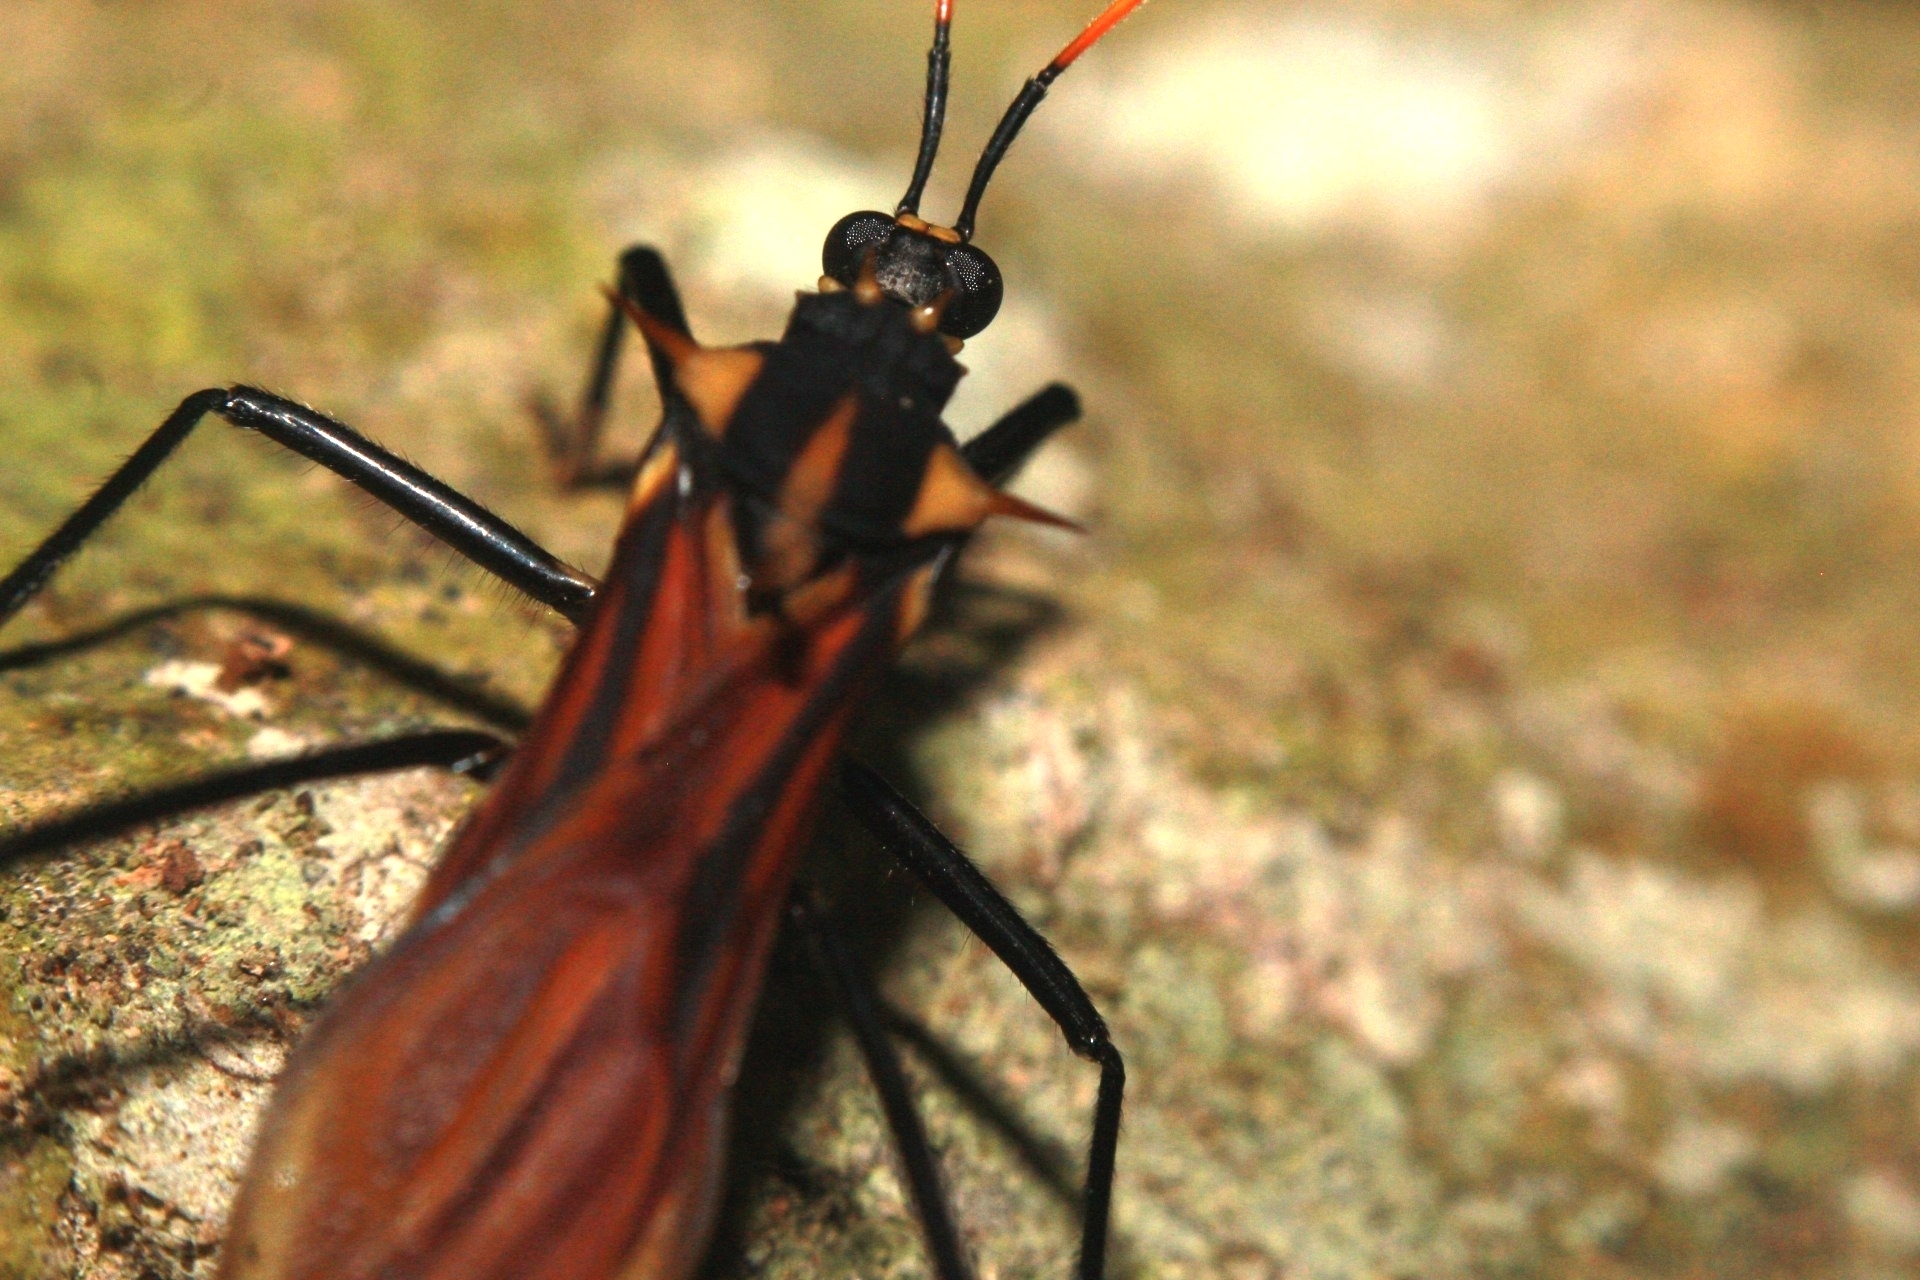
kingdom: Animalia
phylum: Arthropoda
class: Insecta
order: Hemiptera
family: Reduviidae
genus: Zelurus
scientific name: Zelurus festivus
